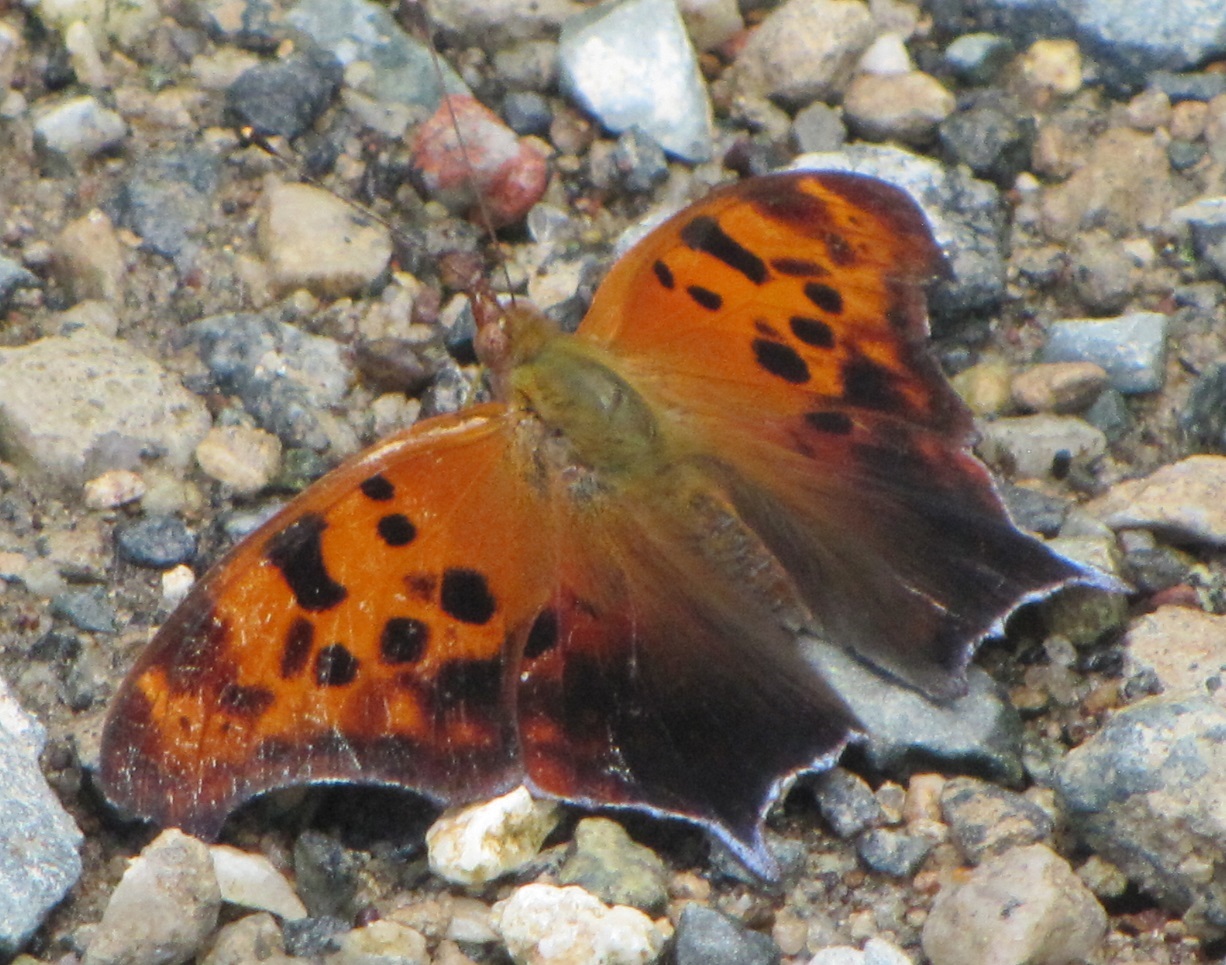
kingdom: Animalia
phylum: Arthropoda
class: Insecta
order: Lepidoptera
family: Nymphalidae
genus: Polygonia
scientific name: Polygonia interrogationis
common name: Question mark
